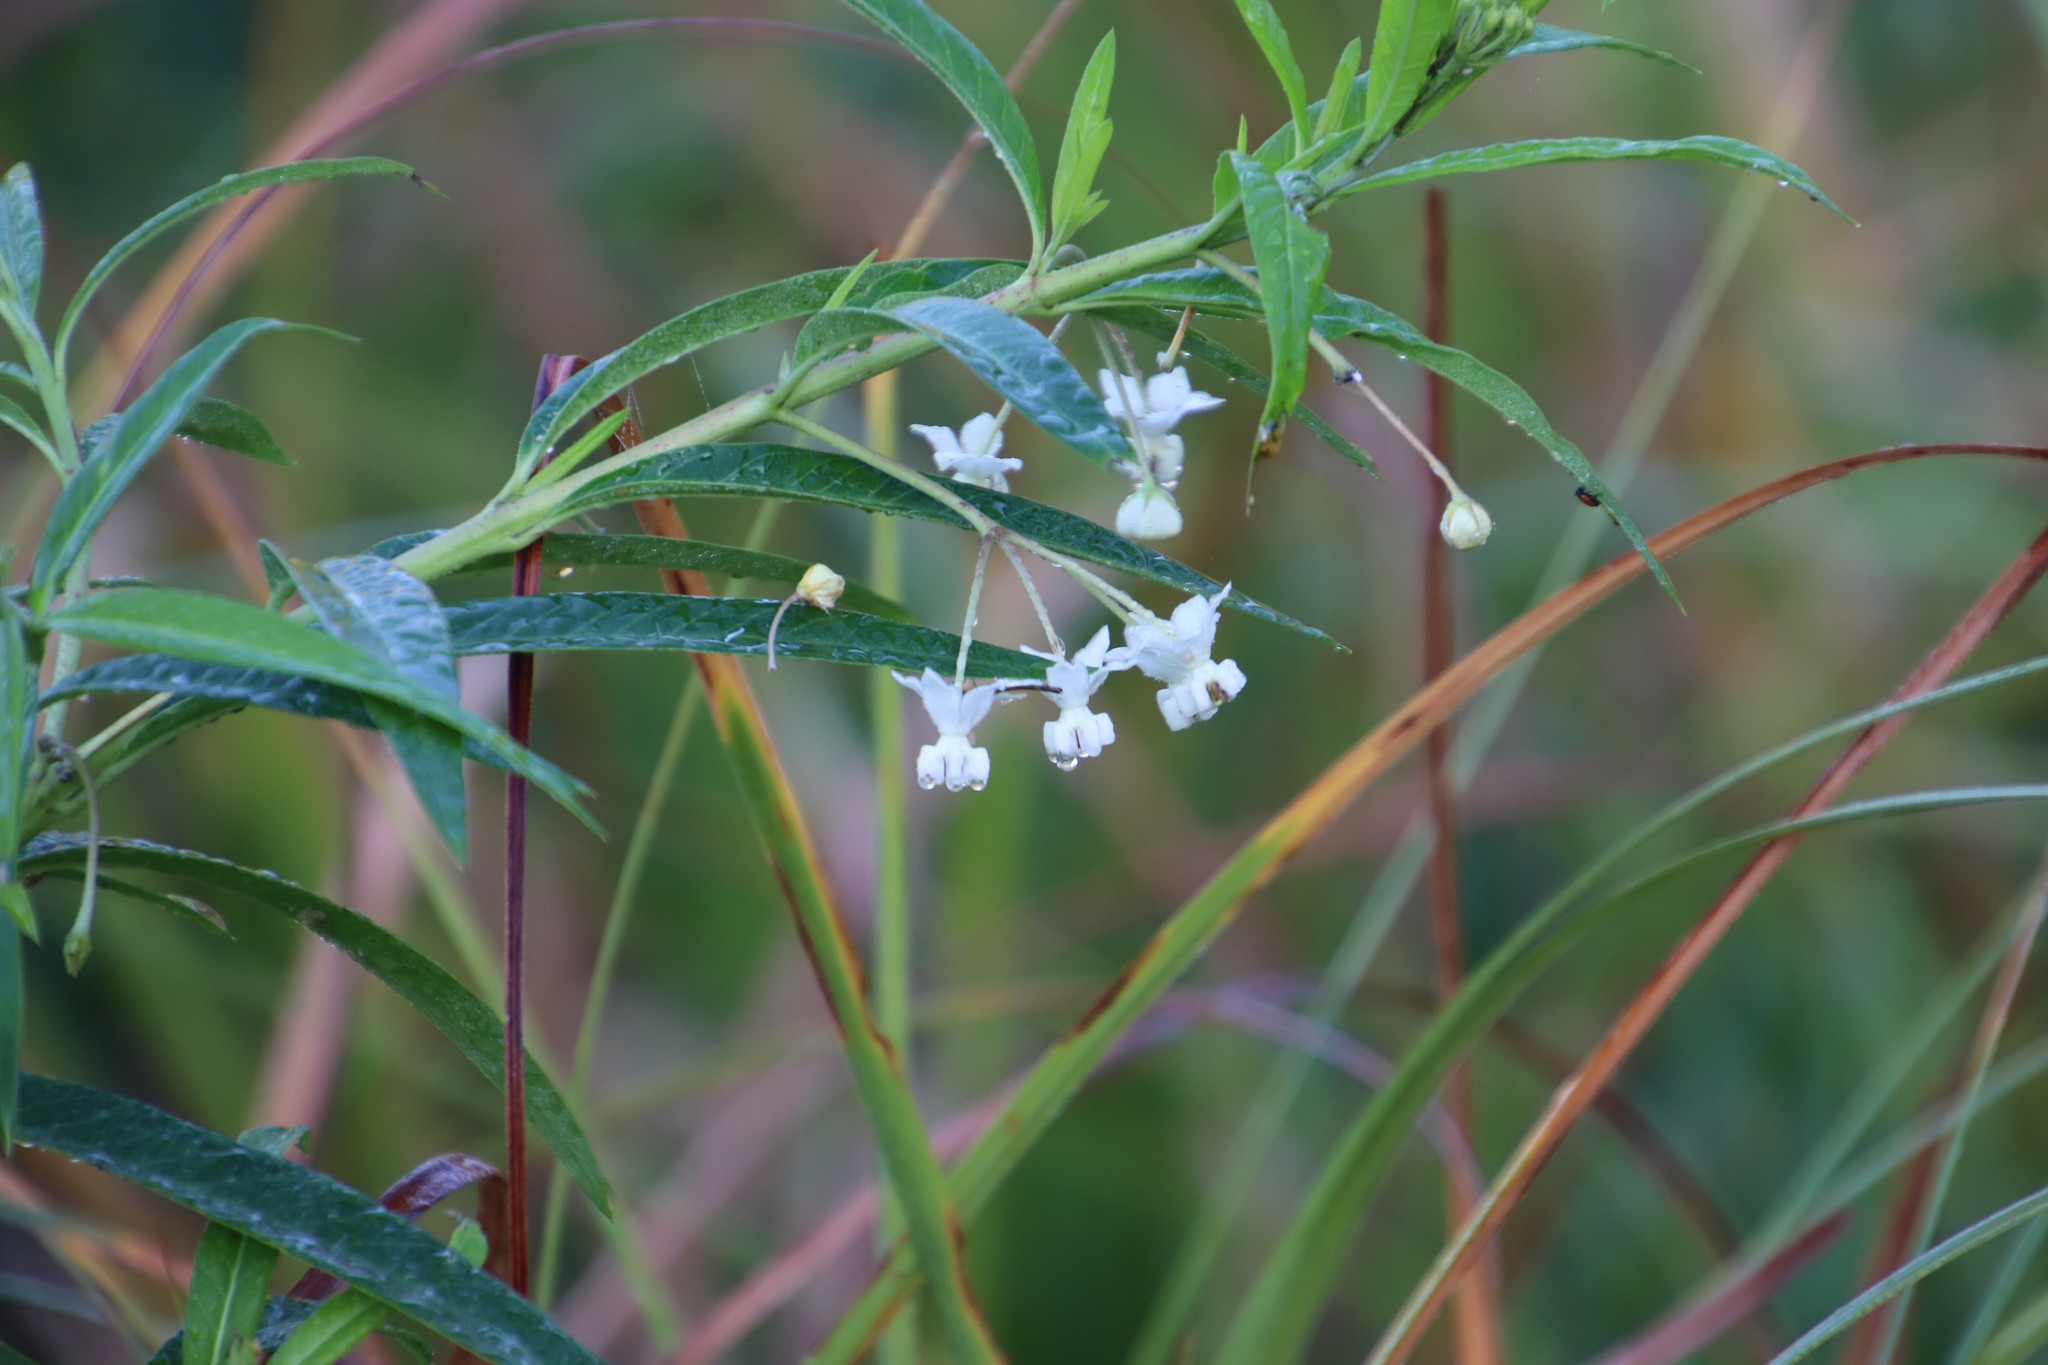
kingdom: Plantae
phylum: Tracheophyta
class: Magnoliopsida
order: Gentianales
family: Apocynaceae
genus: Gomphocarpus
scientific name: Gomphocarpus physocarpus
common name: Balloon cotton bush
